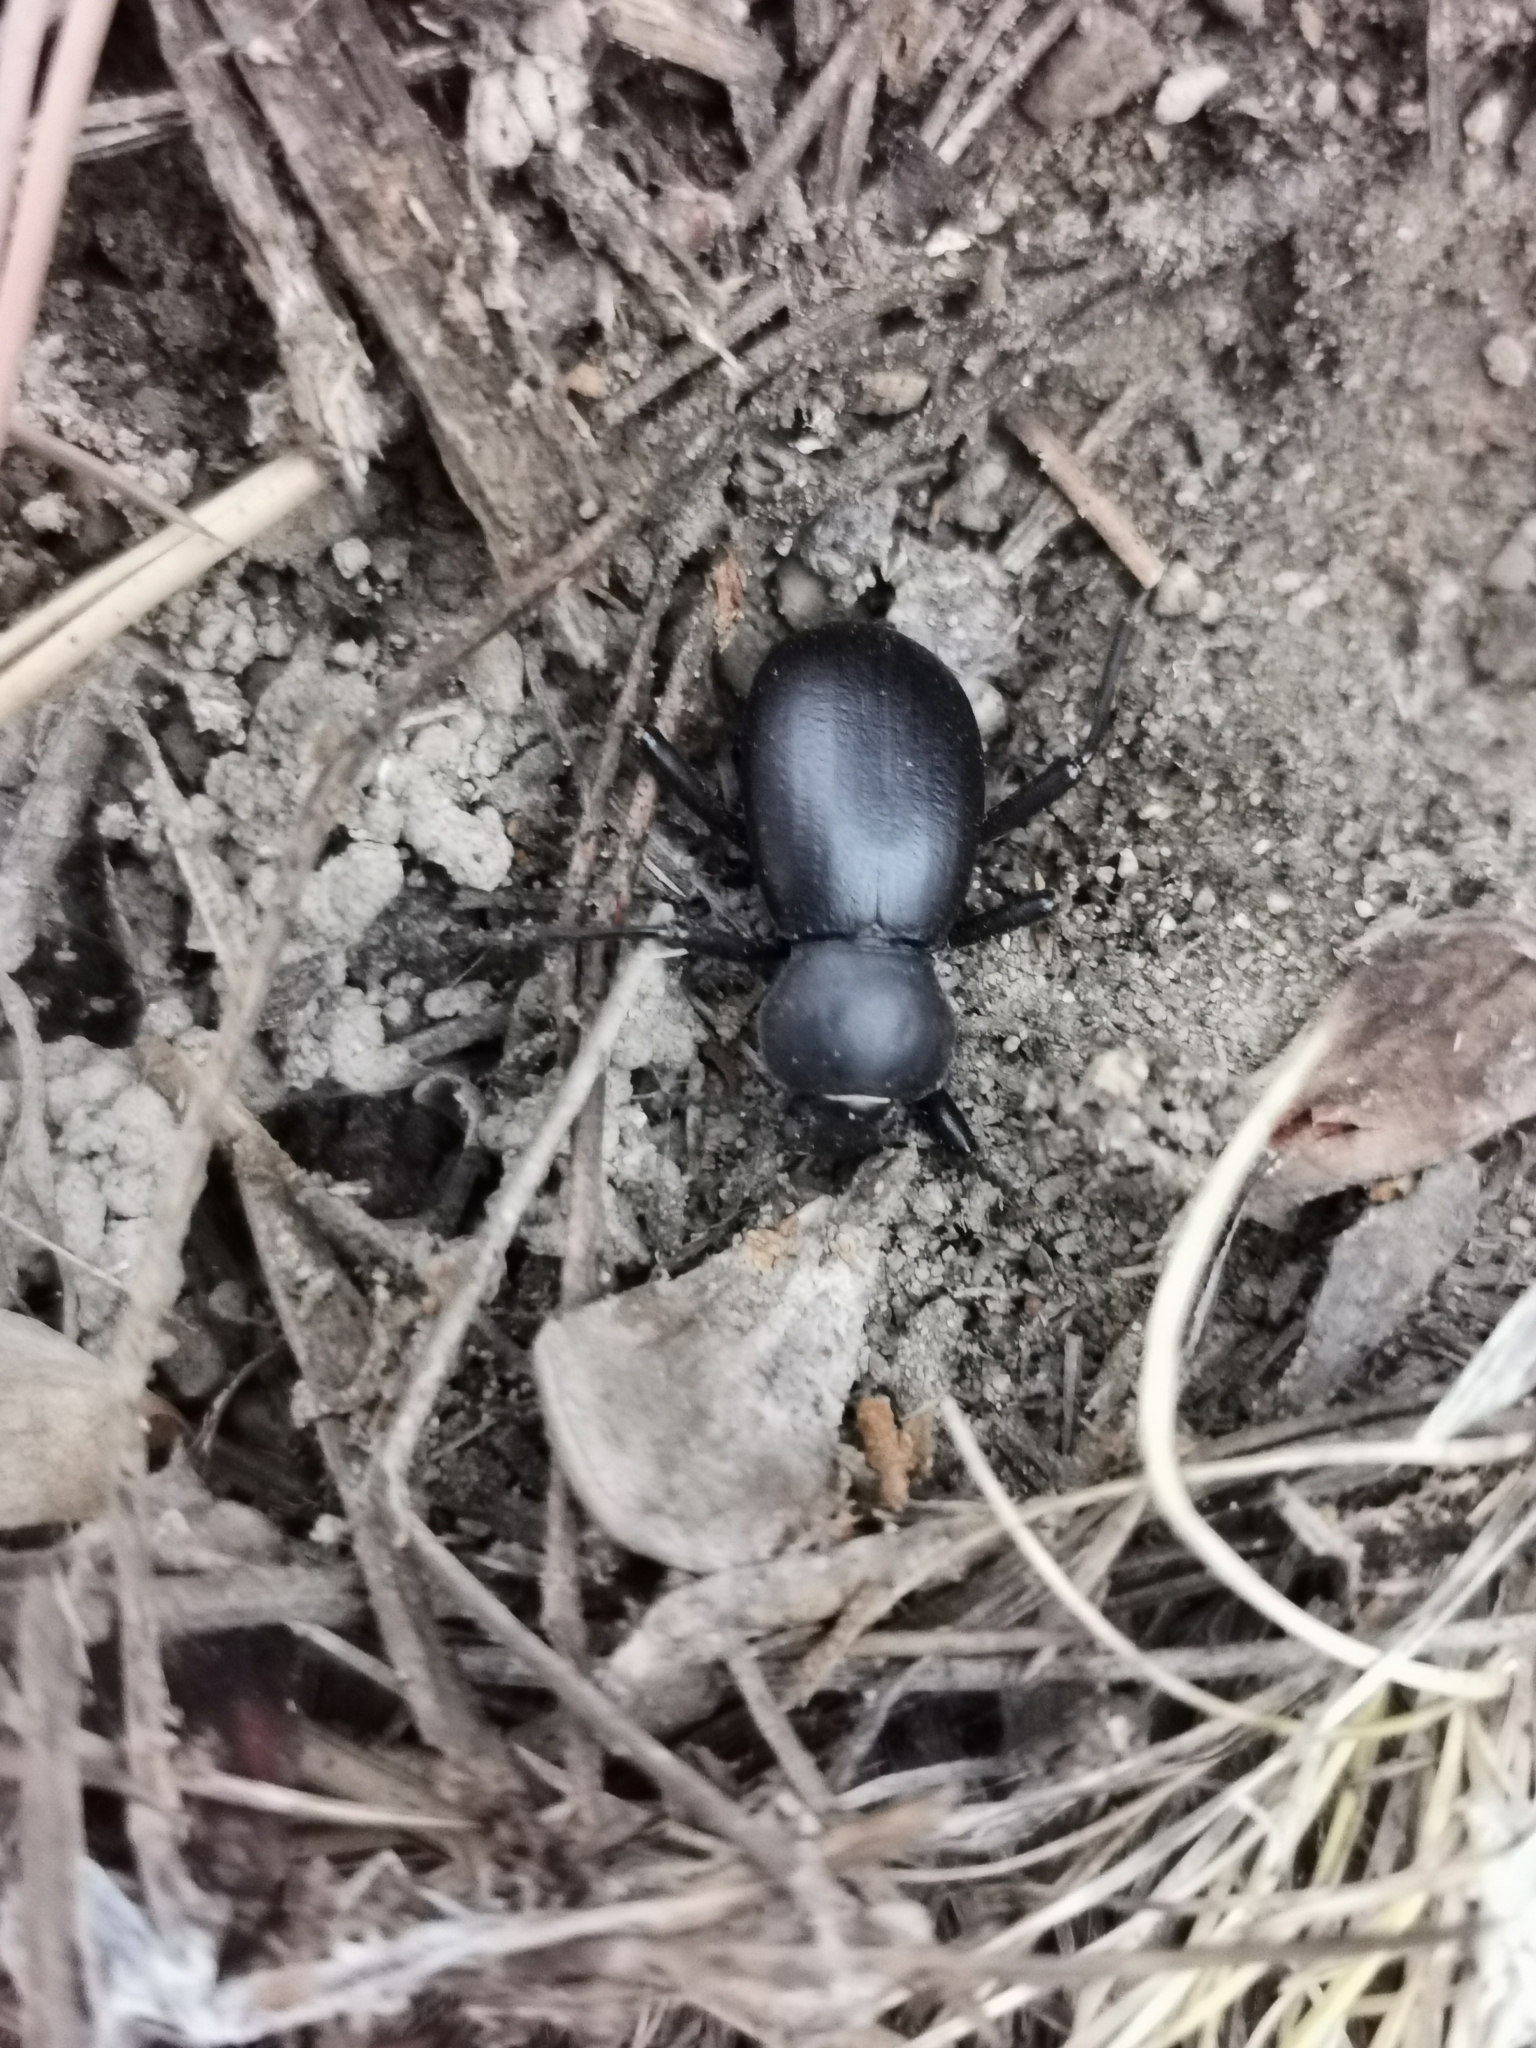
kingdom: Animalia
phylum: Arthropoda
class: Insecta
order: Coleoptera
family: Tenebrionidae
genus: Coelocnemis
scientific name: Coelocnemis dilaticollis
